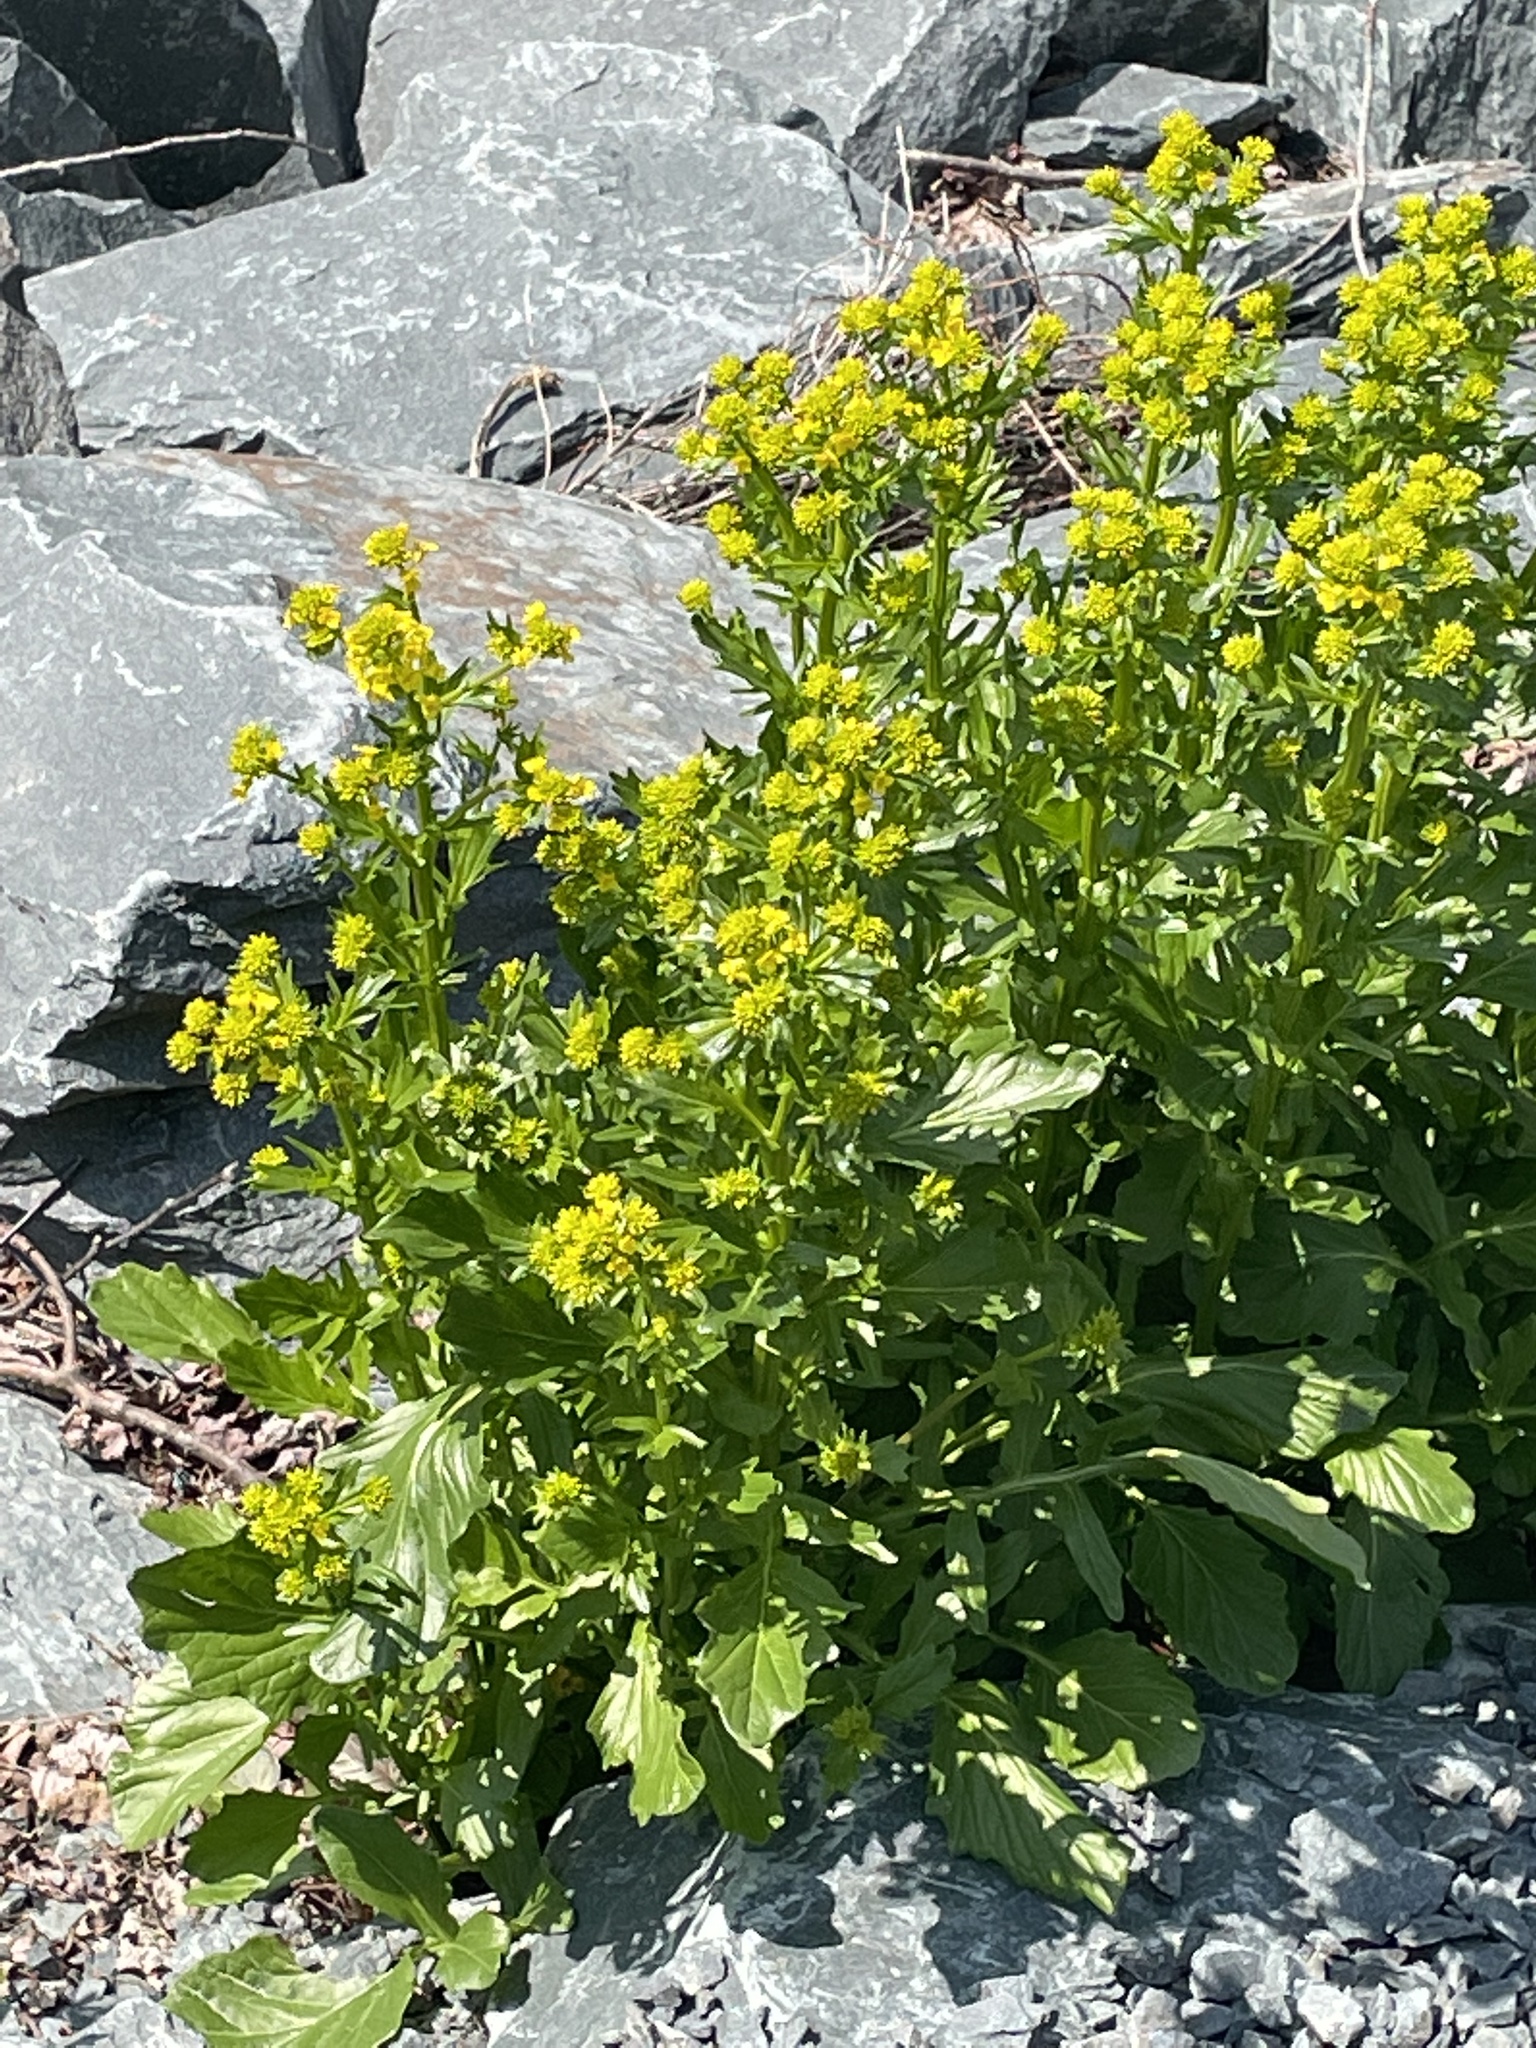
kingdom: Plantae
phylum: Tracheophyta
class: Magnoliopsida
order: Brassicales
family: Brassicaceae
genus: Barbarea
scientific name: Barbarea vulgaris
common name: Cressy-greens
